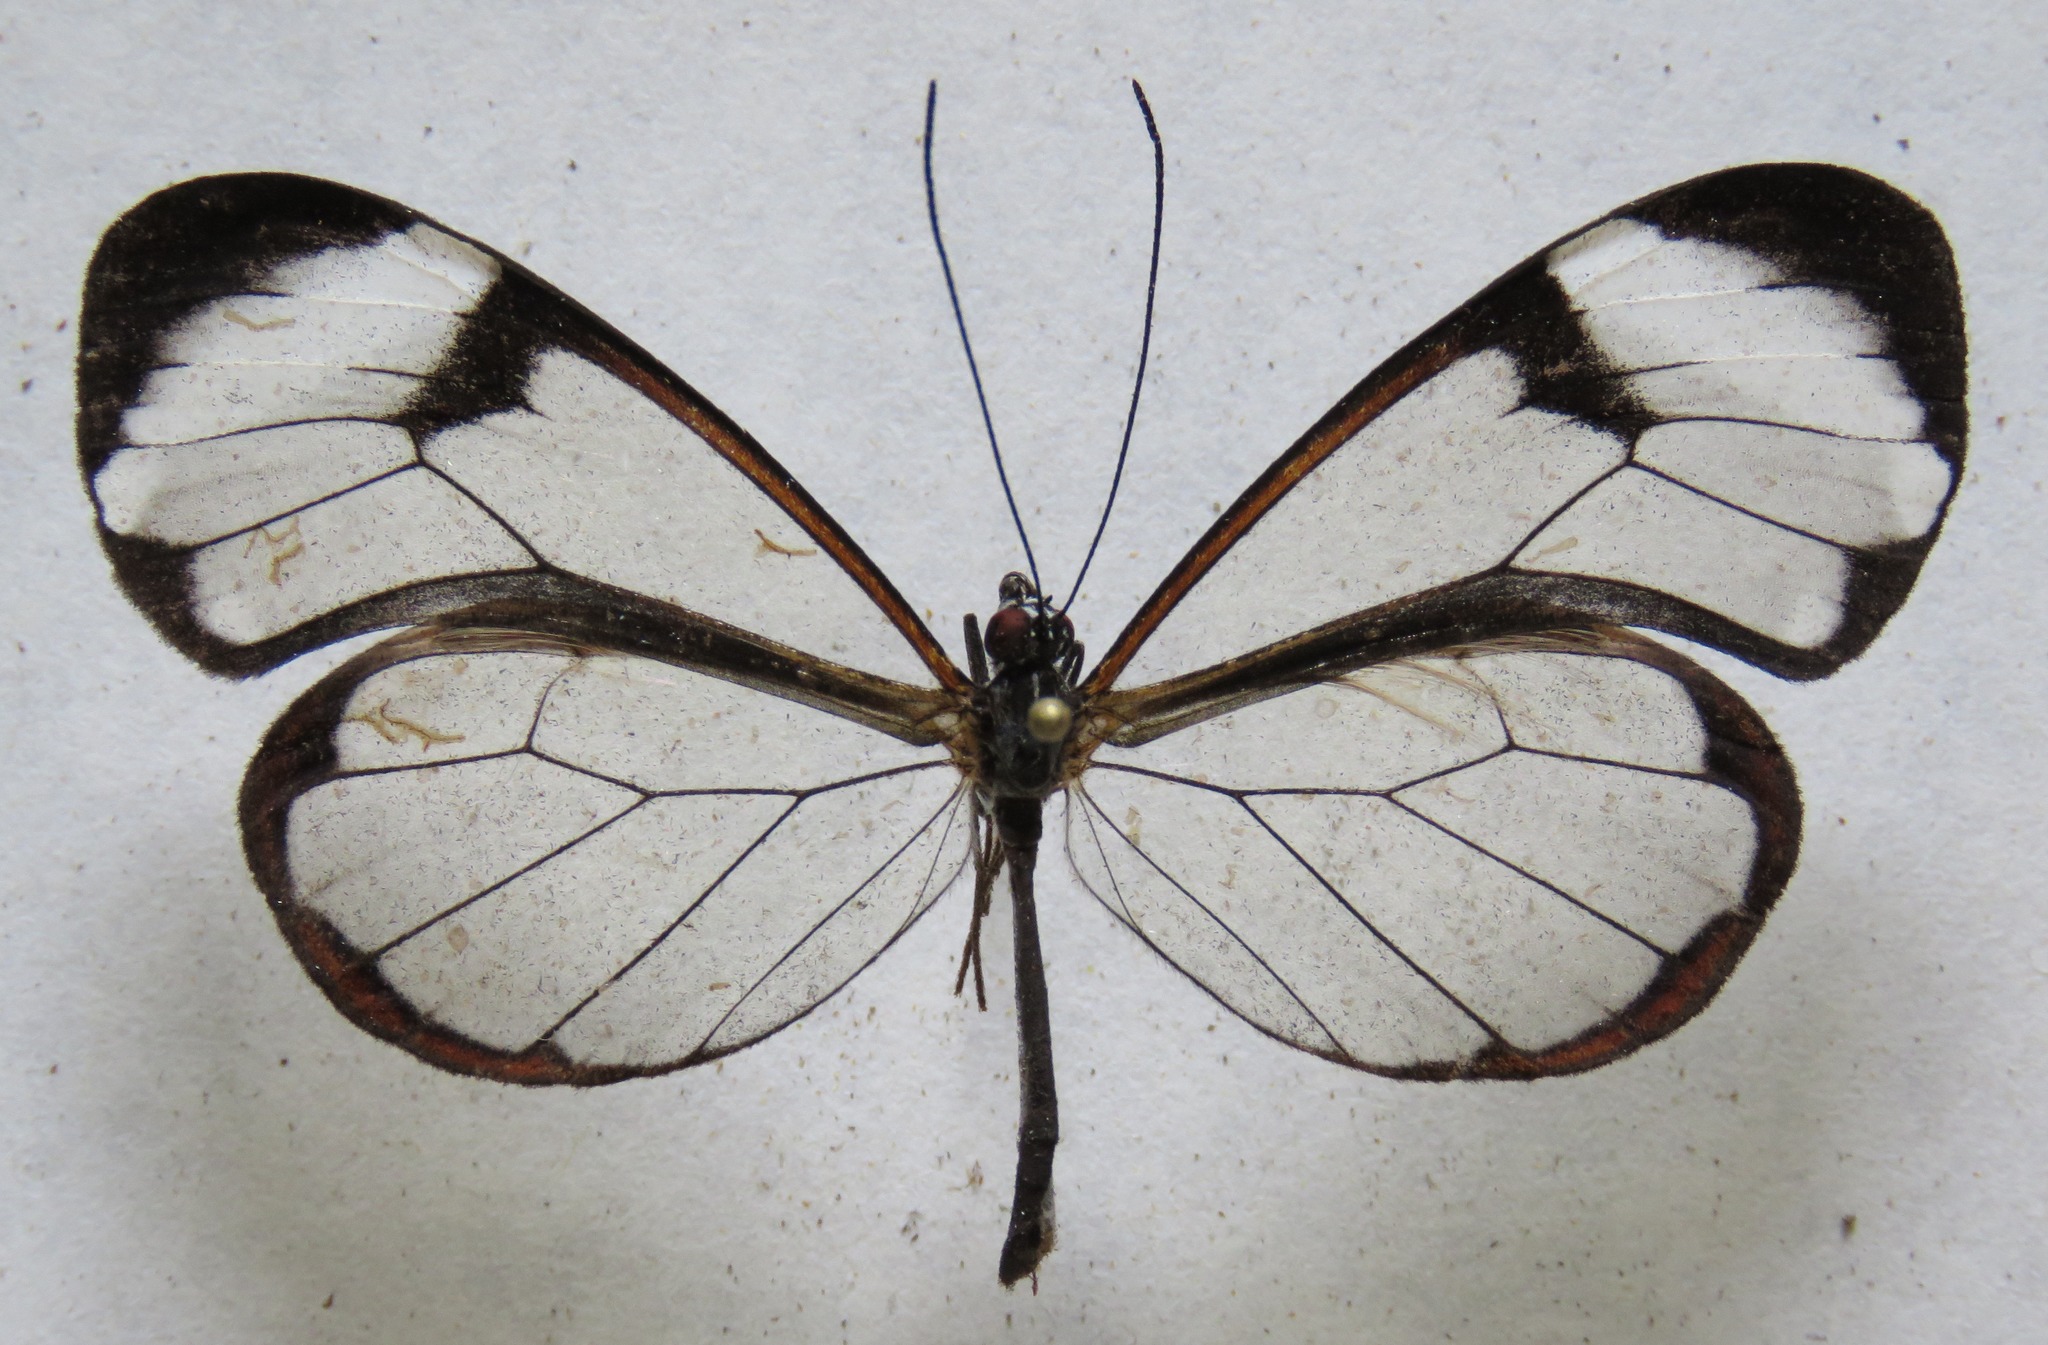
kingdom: Animalia
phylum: Arthropoda
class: Insecta
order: Lepidoptera
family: Nymphalidae
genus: Greta
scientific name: Greta morgane
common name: Thick-tipped greta
